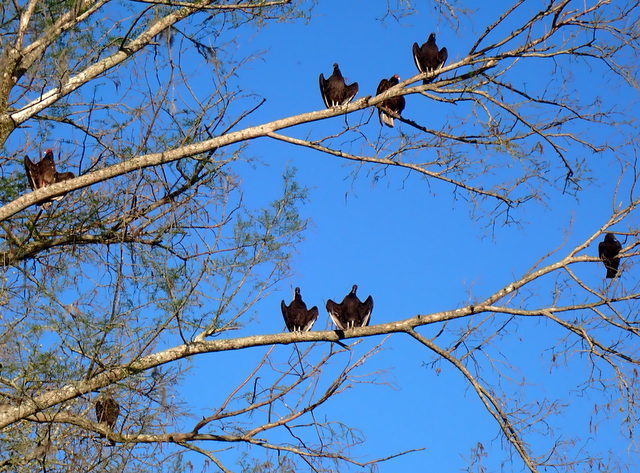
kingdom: Animalia
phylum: Chordata
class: Aves
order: Accipitriformes
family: Cathartidae
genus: Cathartes
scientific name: Cathartes aura
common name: Turkey vulture
